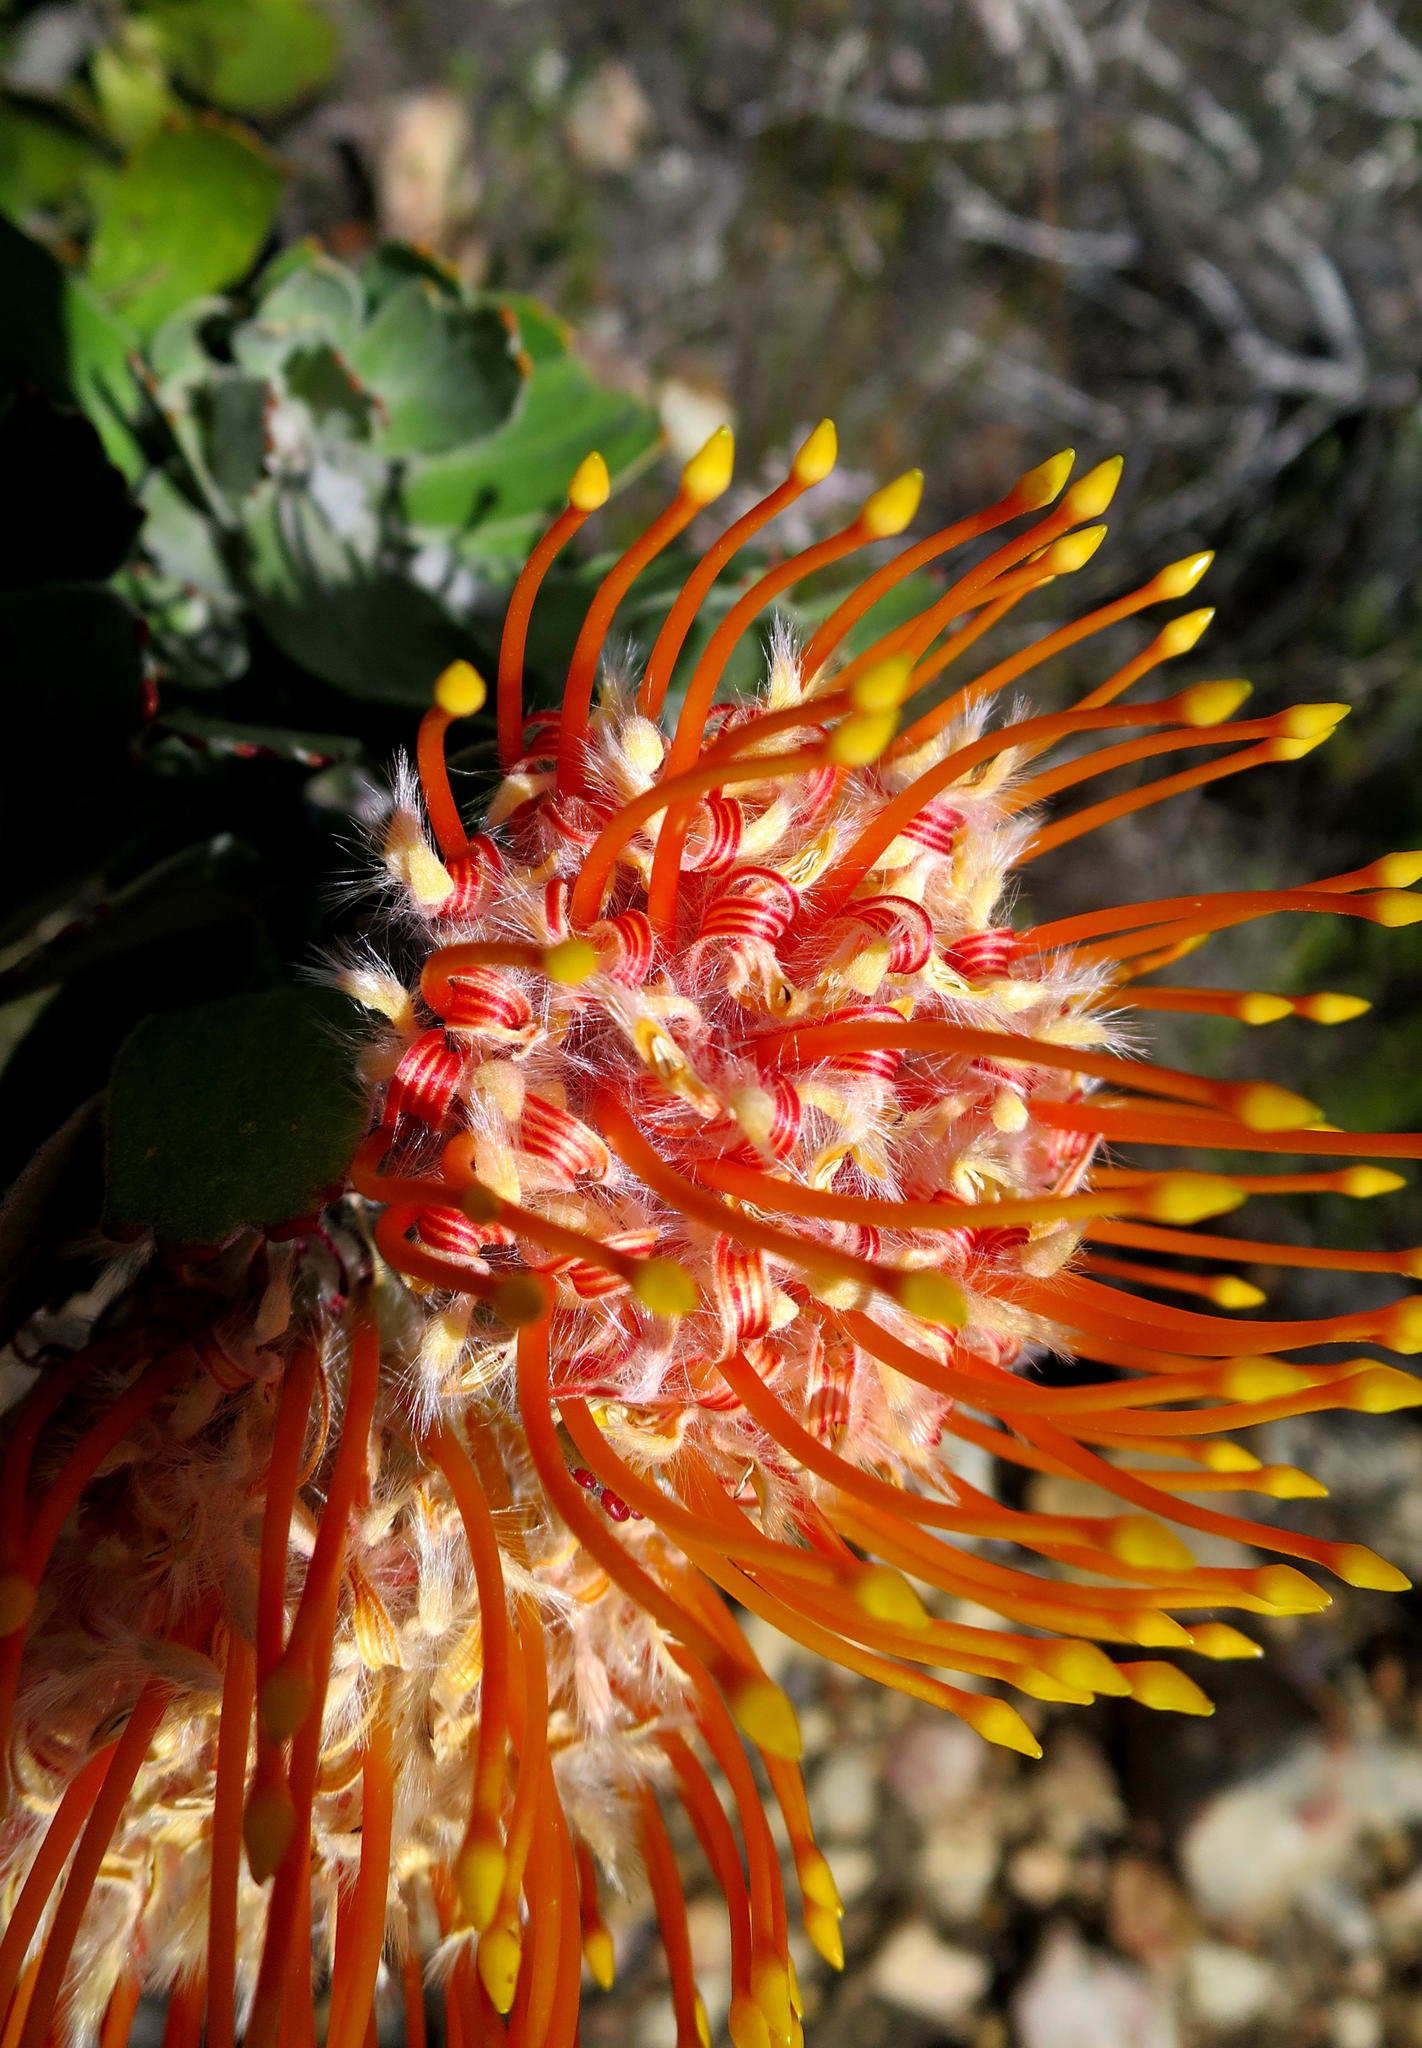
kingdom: Plantae
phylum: Tracheophyta
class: Magnoliopsida
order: Proteales
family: Proteaceae
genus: Leucospermum
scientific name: Leucospermum pluridens
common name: Robinson pincushion
